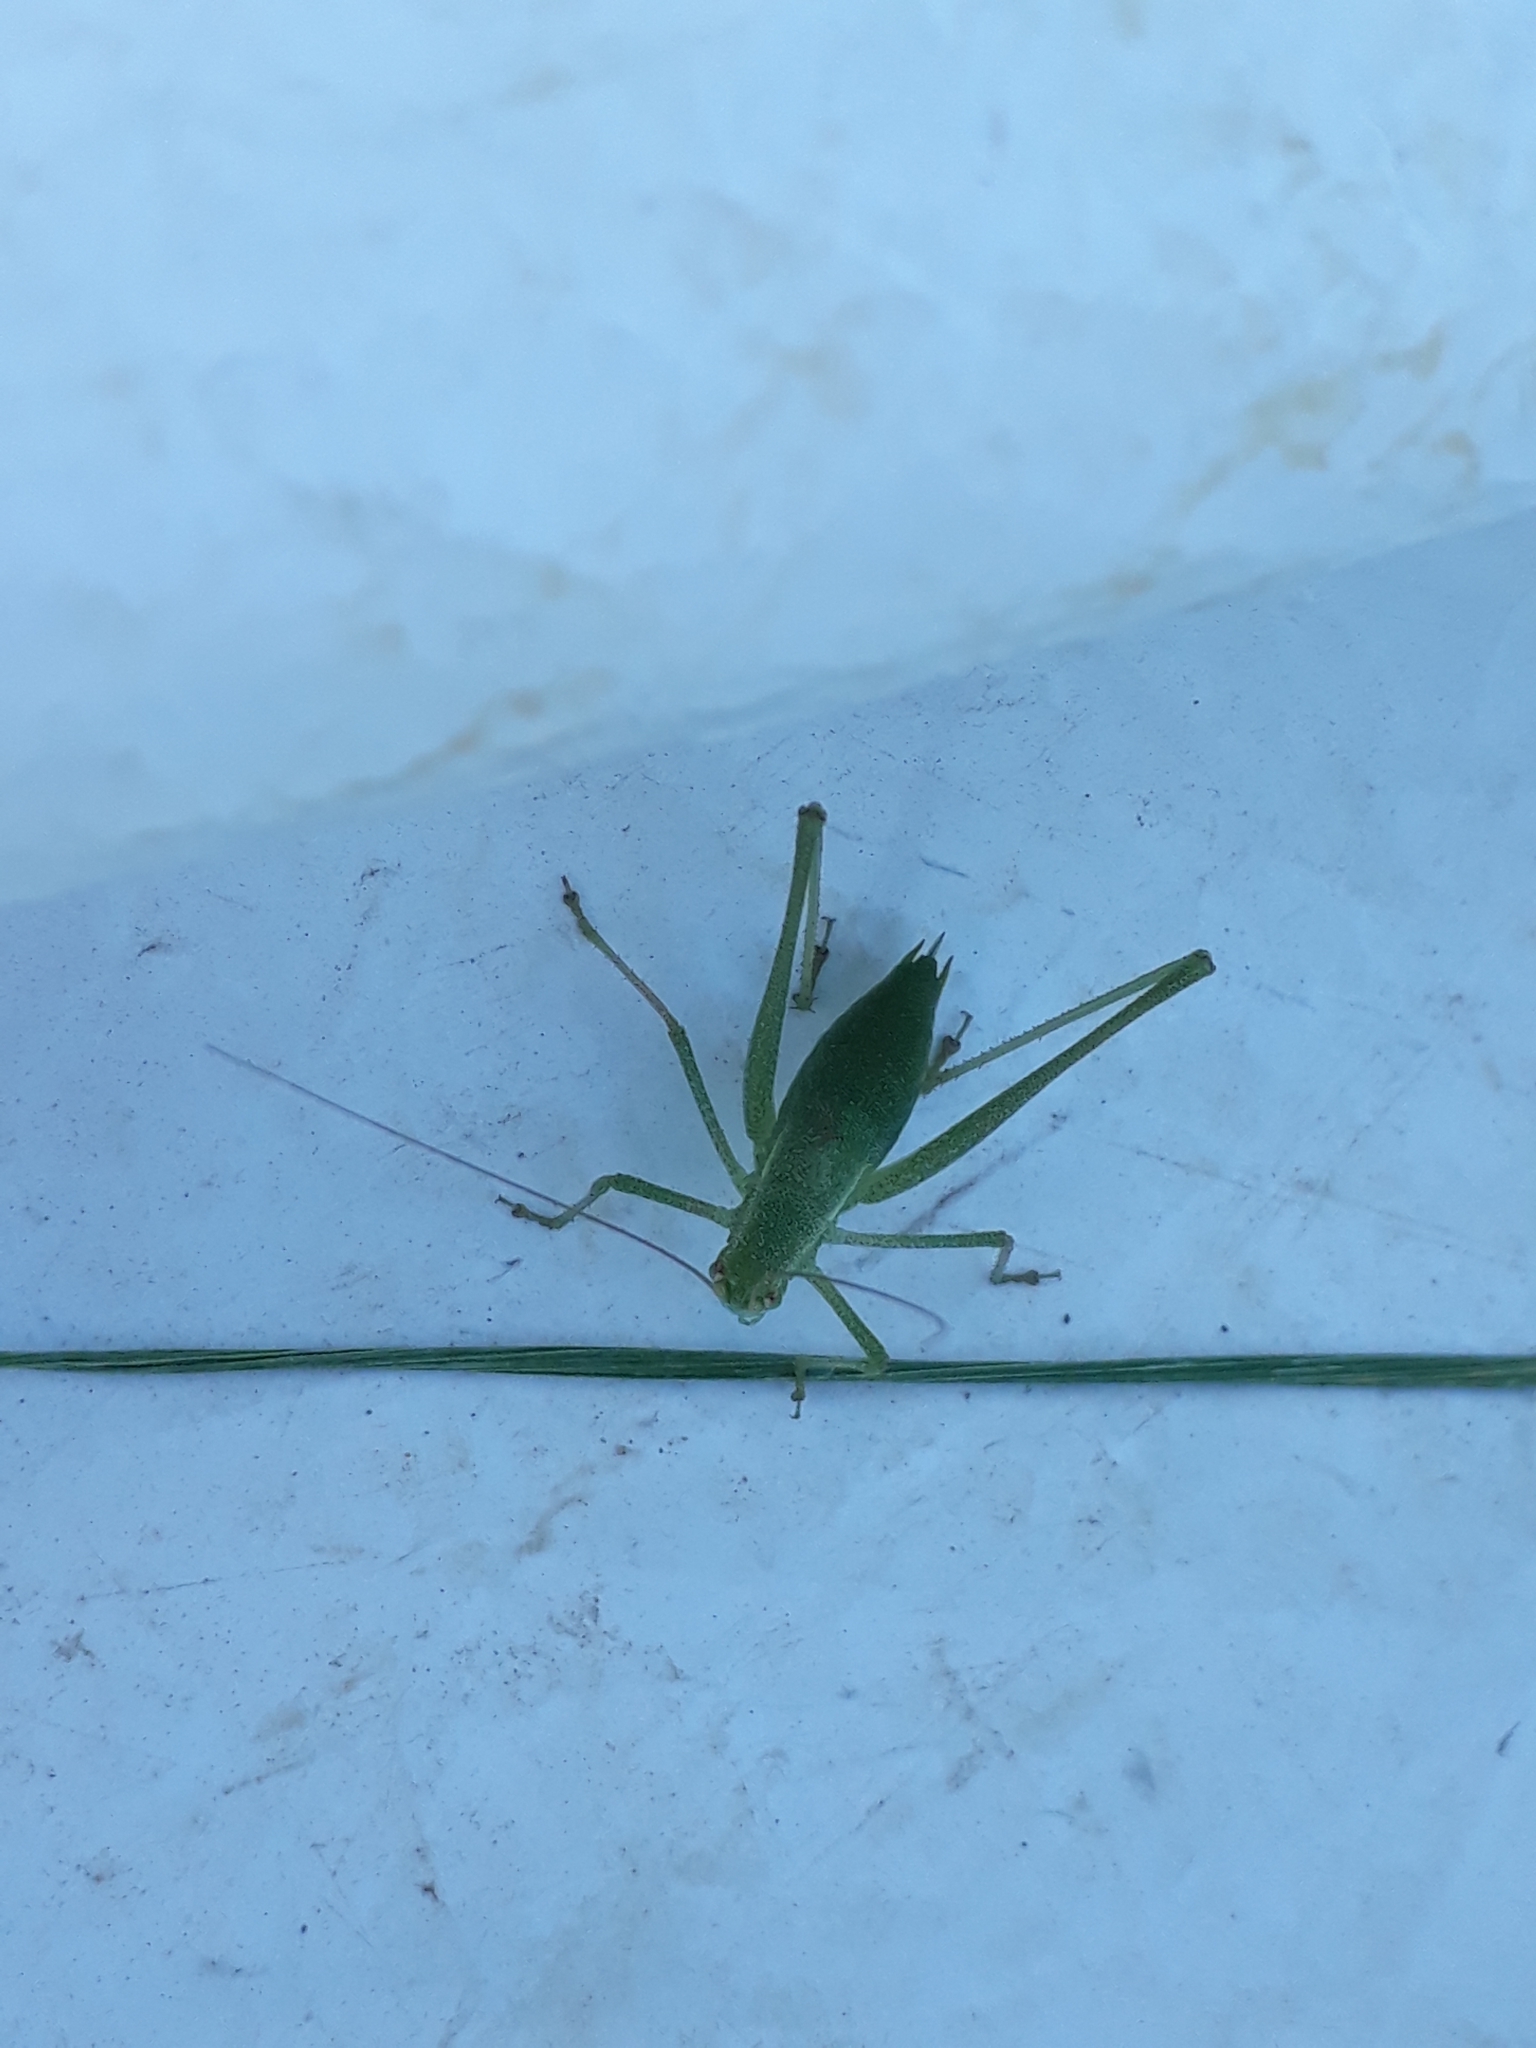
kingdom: Animalia
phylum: Arthropoda
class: Insecta
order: Orthoptera
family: Tettigoniidae
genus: Anisophya
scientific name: Anisophya punctinervis
